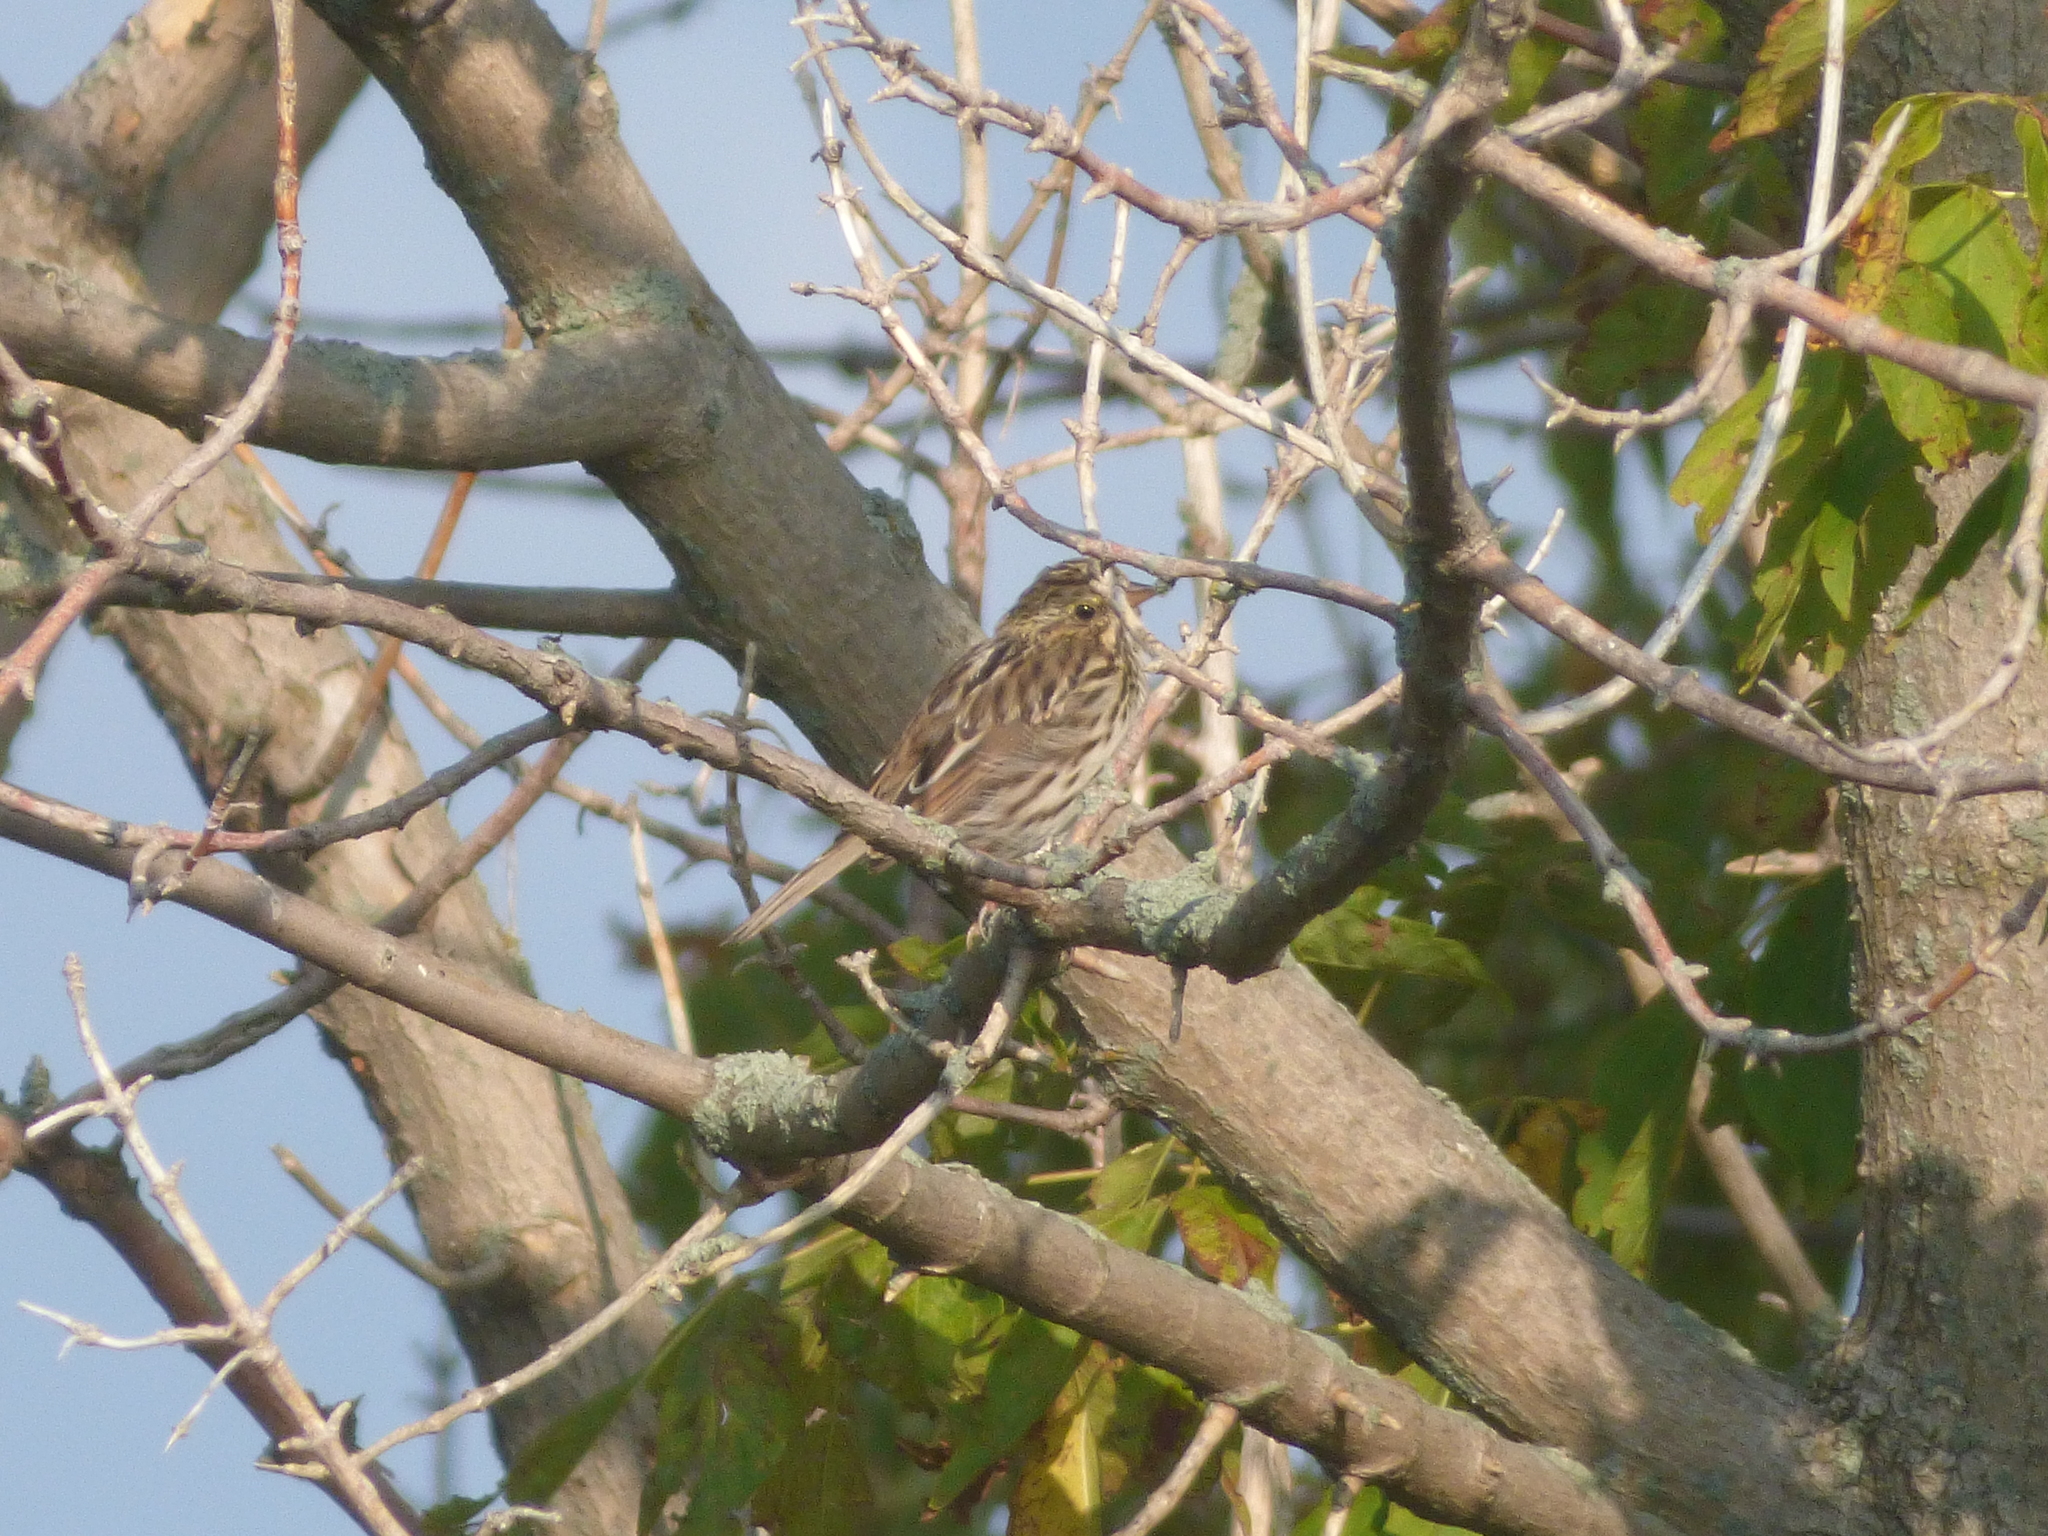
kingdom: Animalia
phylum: Chordata
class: Aves
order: Passeriformes
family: Passerellidae
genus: Passerculus
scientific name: Passerculus sandwichensis
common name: Savannah sparrow
